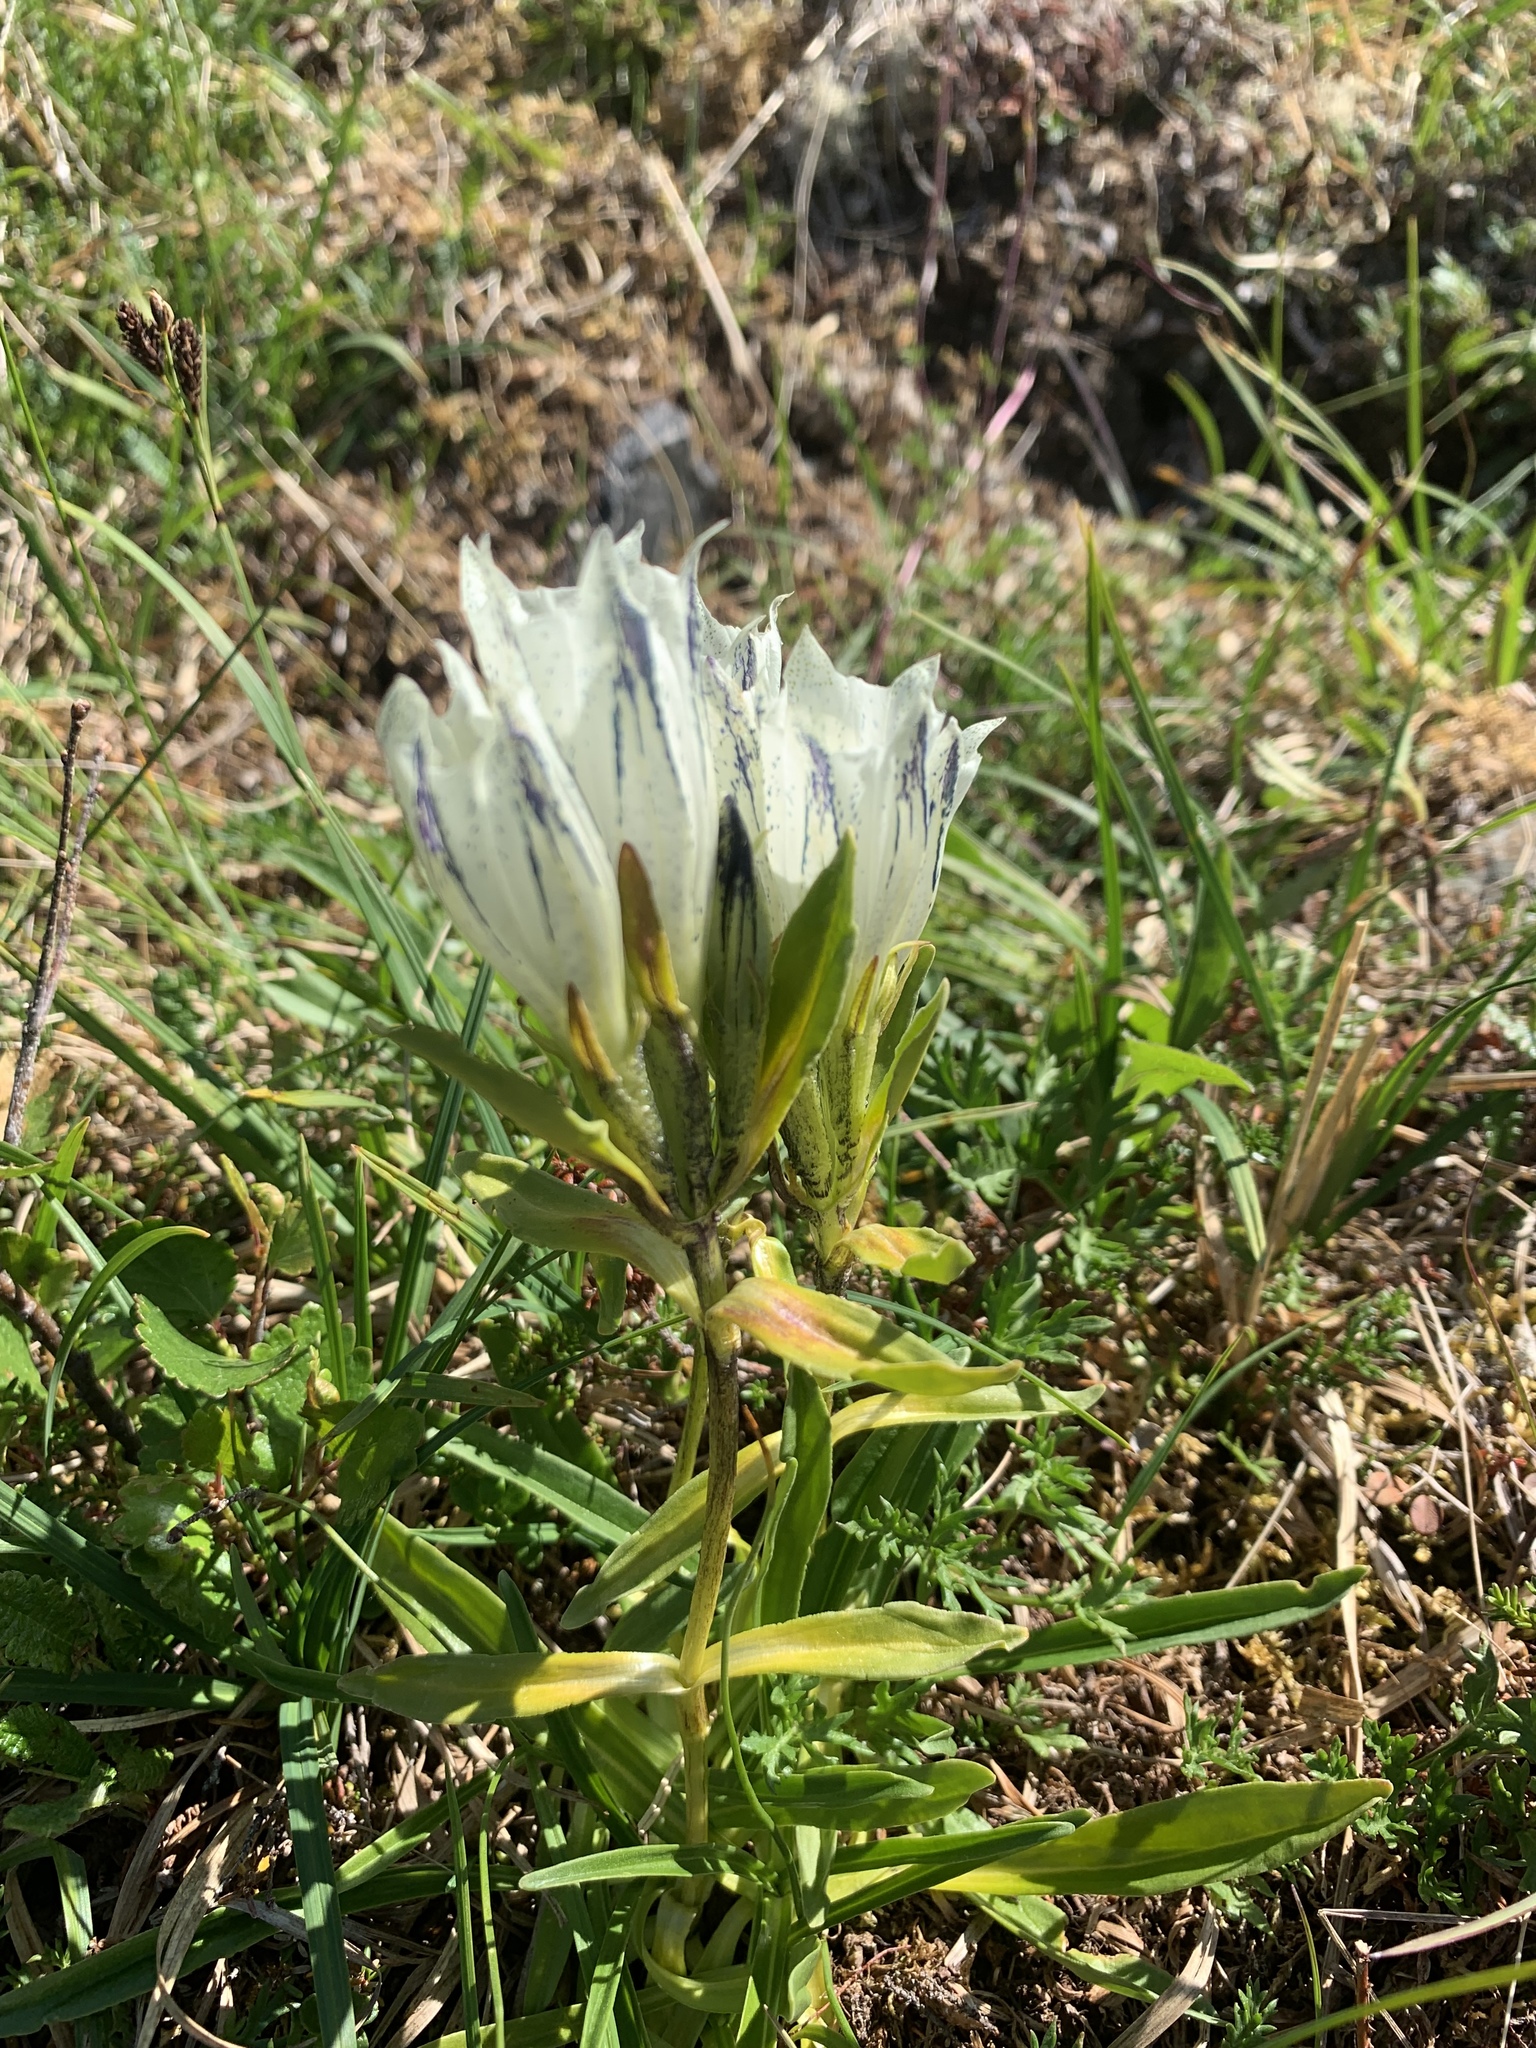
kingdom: Plantae
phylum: Tracheophyta
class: Magnoliopsida
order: Gentianales
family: Gentianaceae
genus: Gentiana
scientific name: Gentiana algida
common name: Arctic gentian
